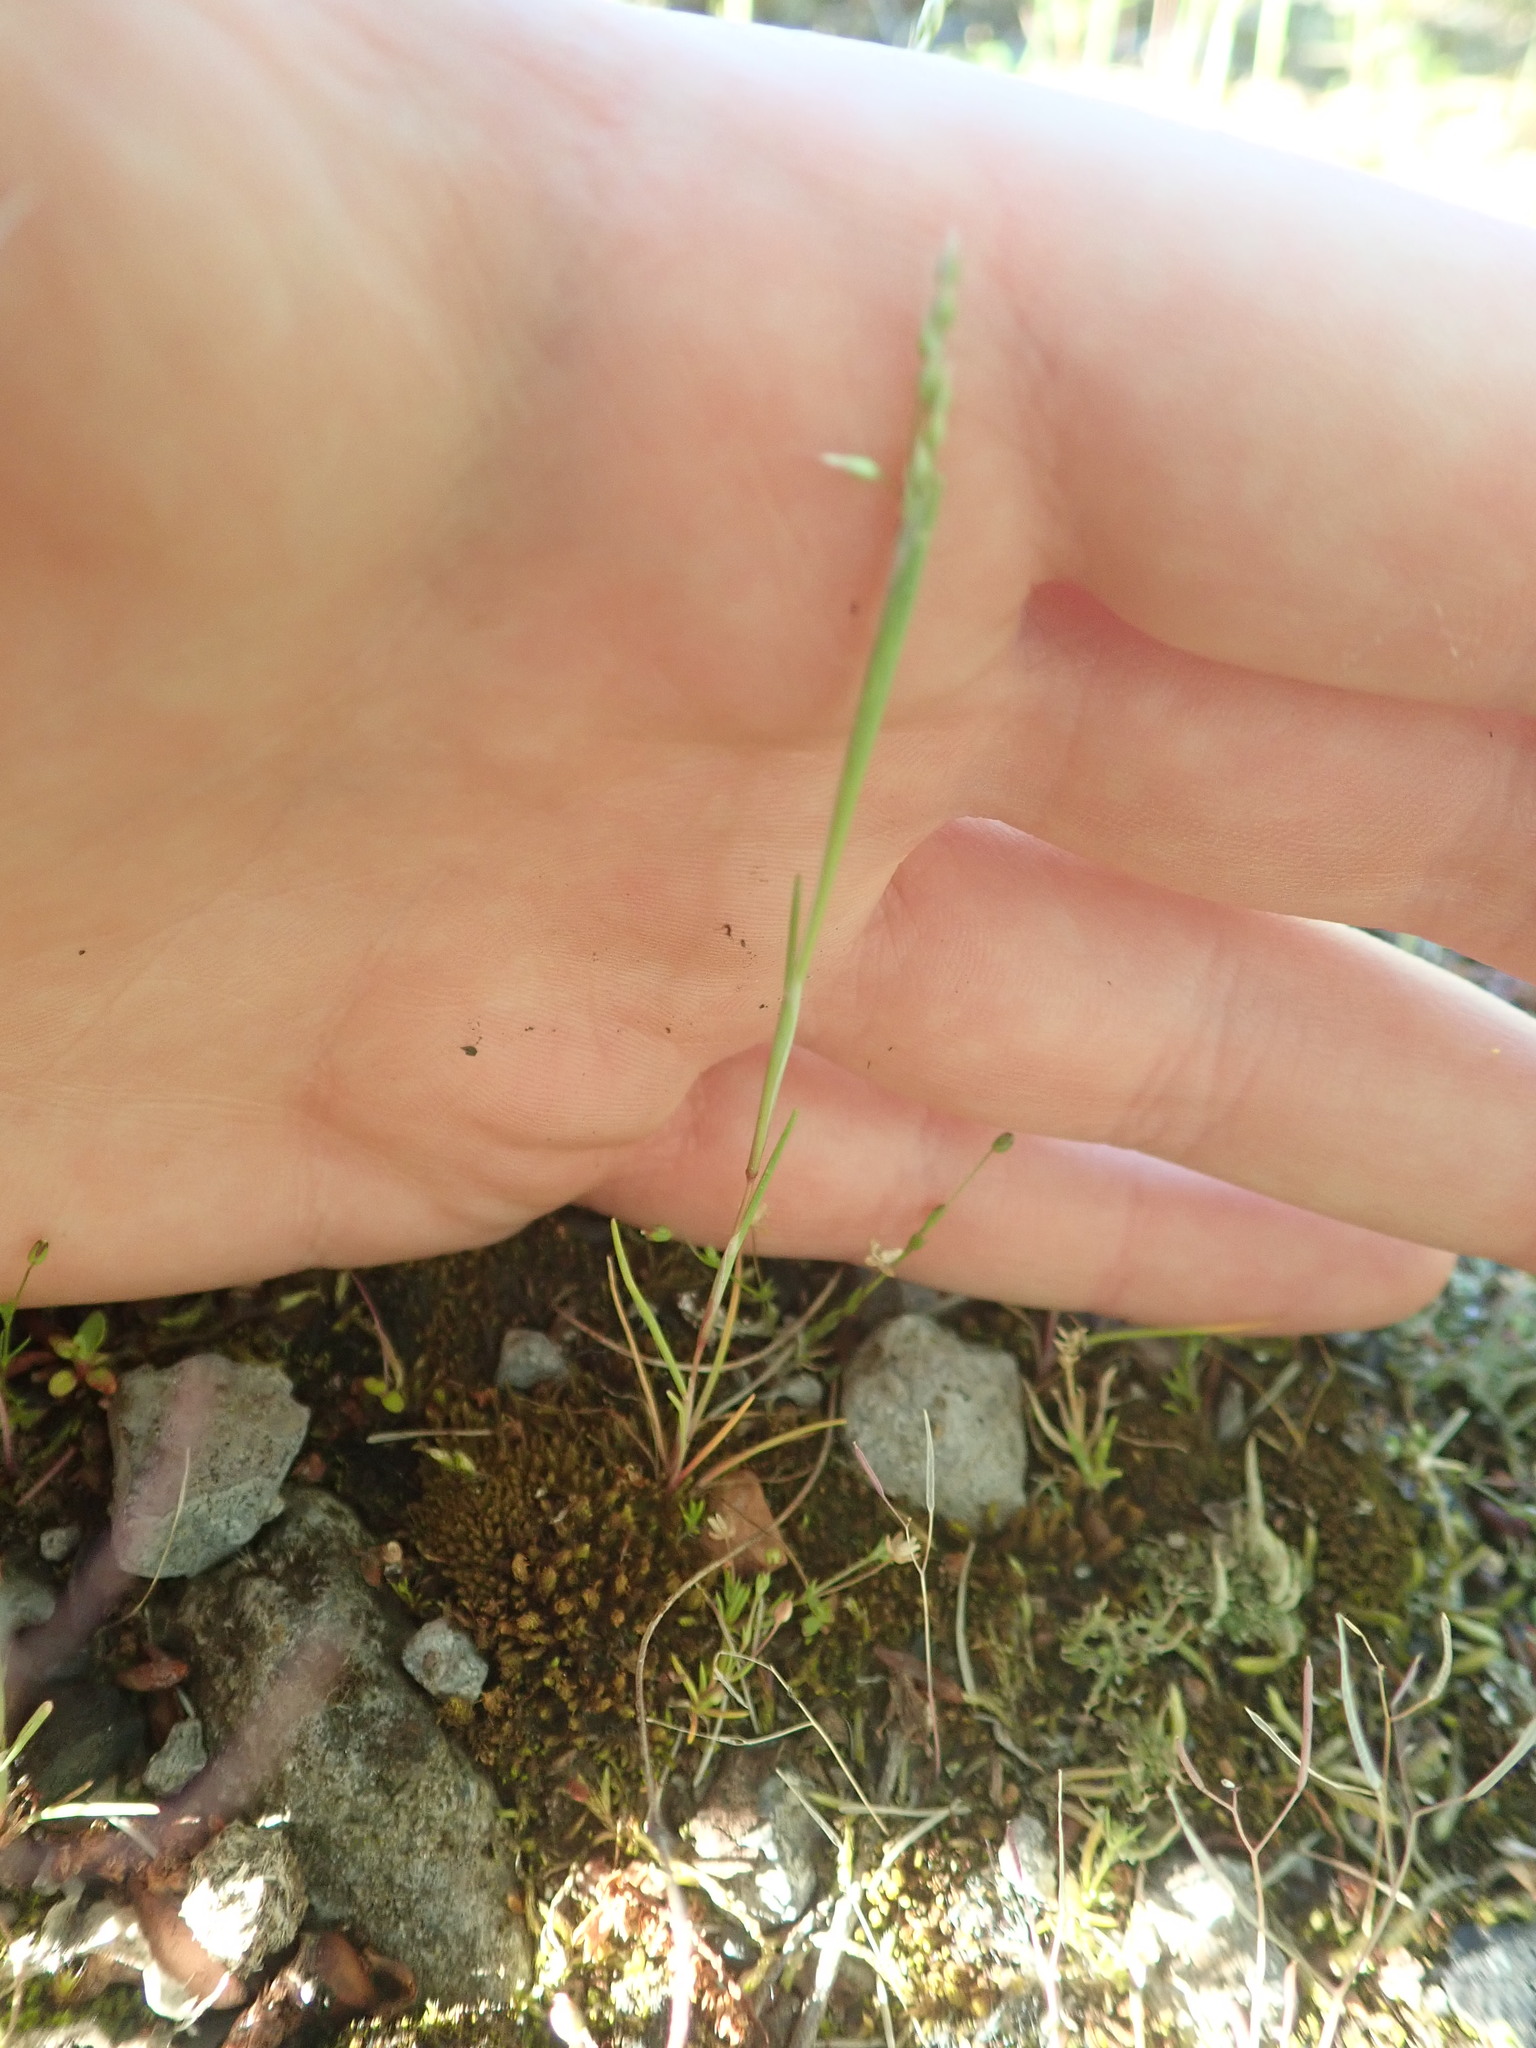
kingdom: Plantae
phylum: Tracheophyta
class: Liliopsida
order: Poales
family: Poaceae
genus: Aira
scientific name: Aira praecox
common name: Early hair-grass
